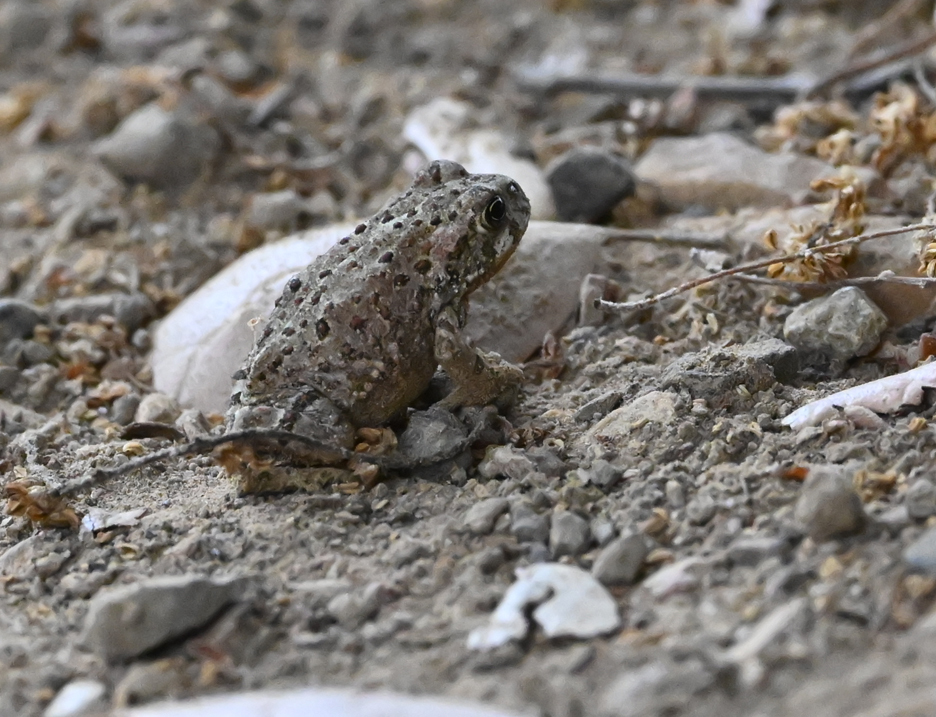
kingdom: Animalia
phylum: Chordata
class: Amphibia
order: Anura
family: Bufonidae
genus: Anaxyrus
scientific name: Anaxyrus boreas
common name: Western toad
